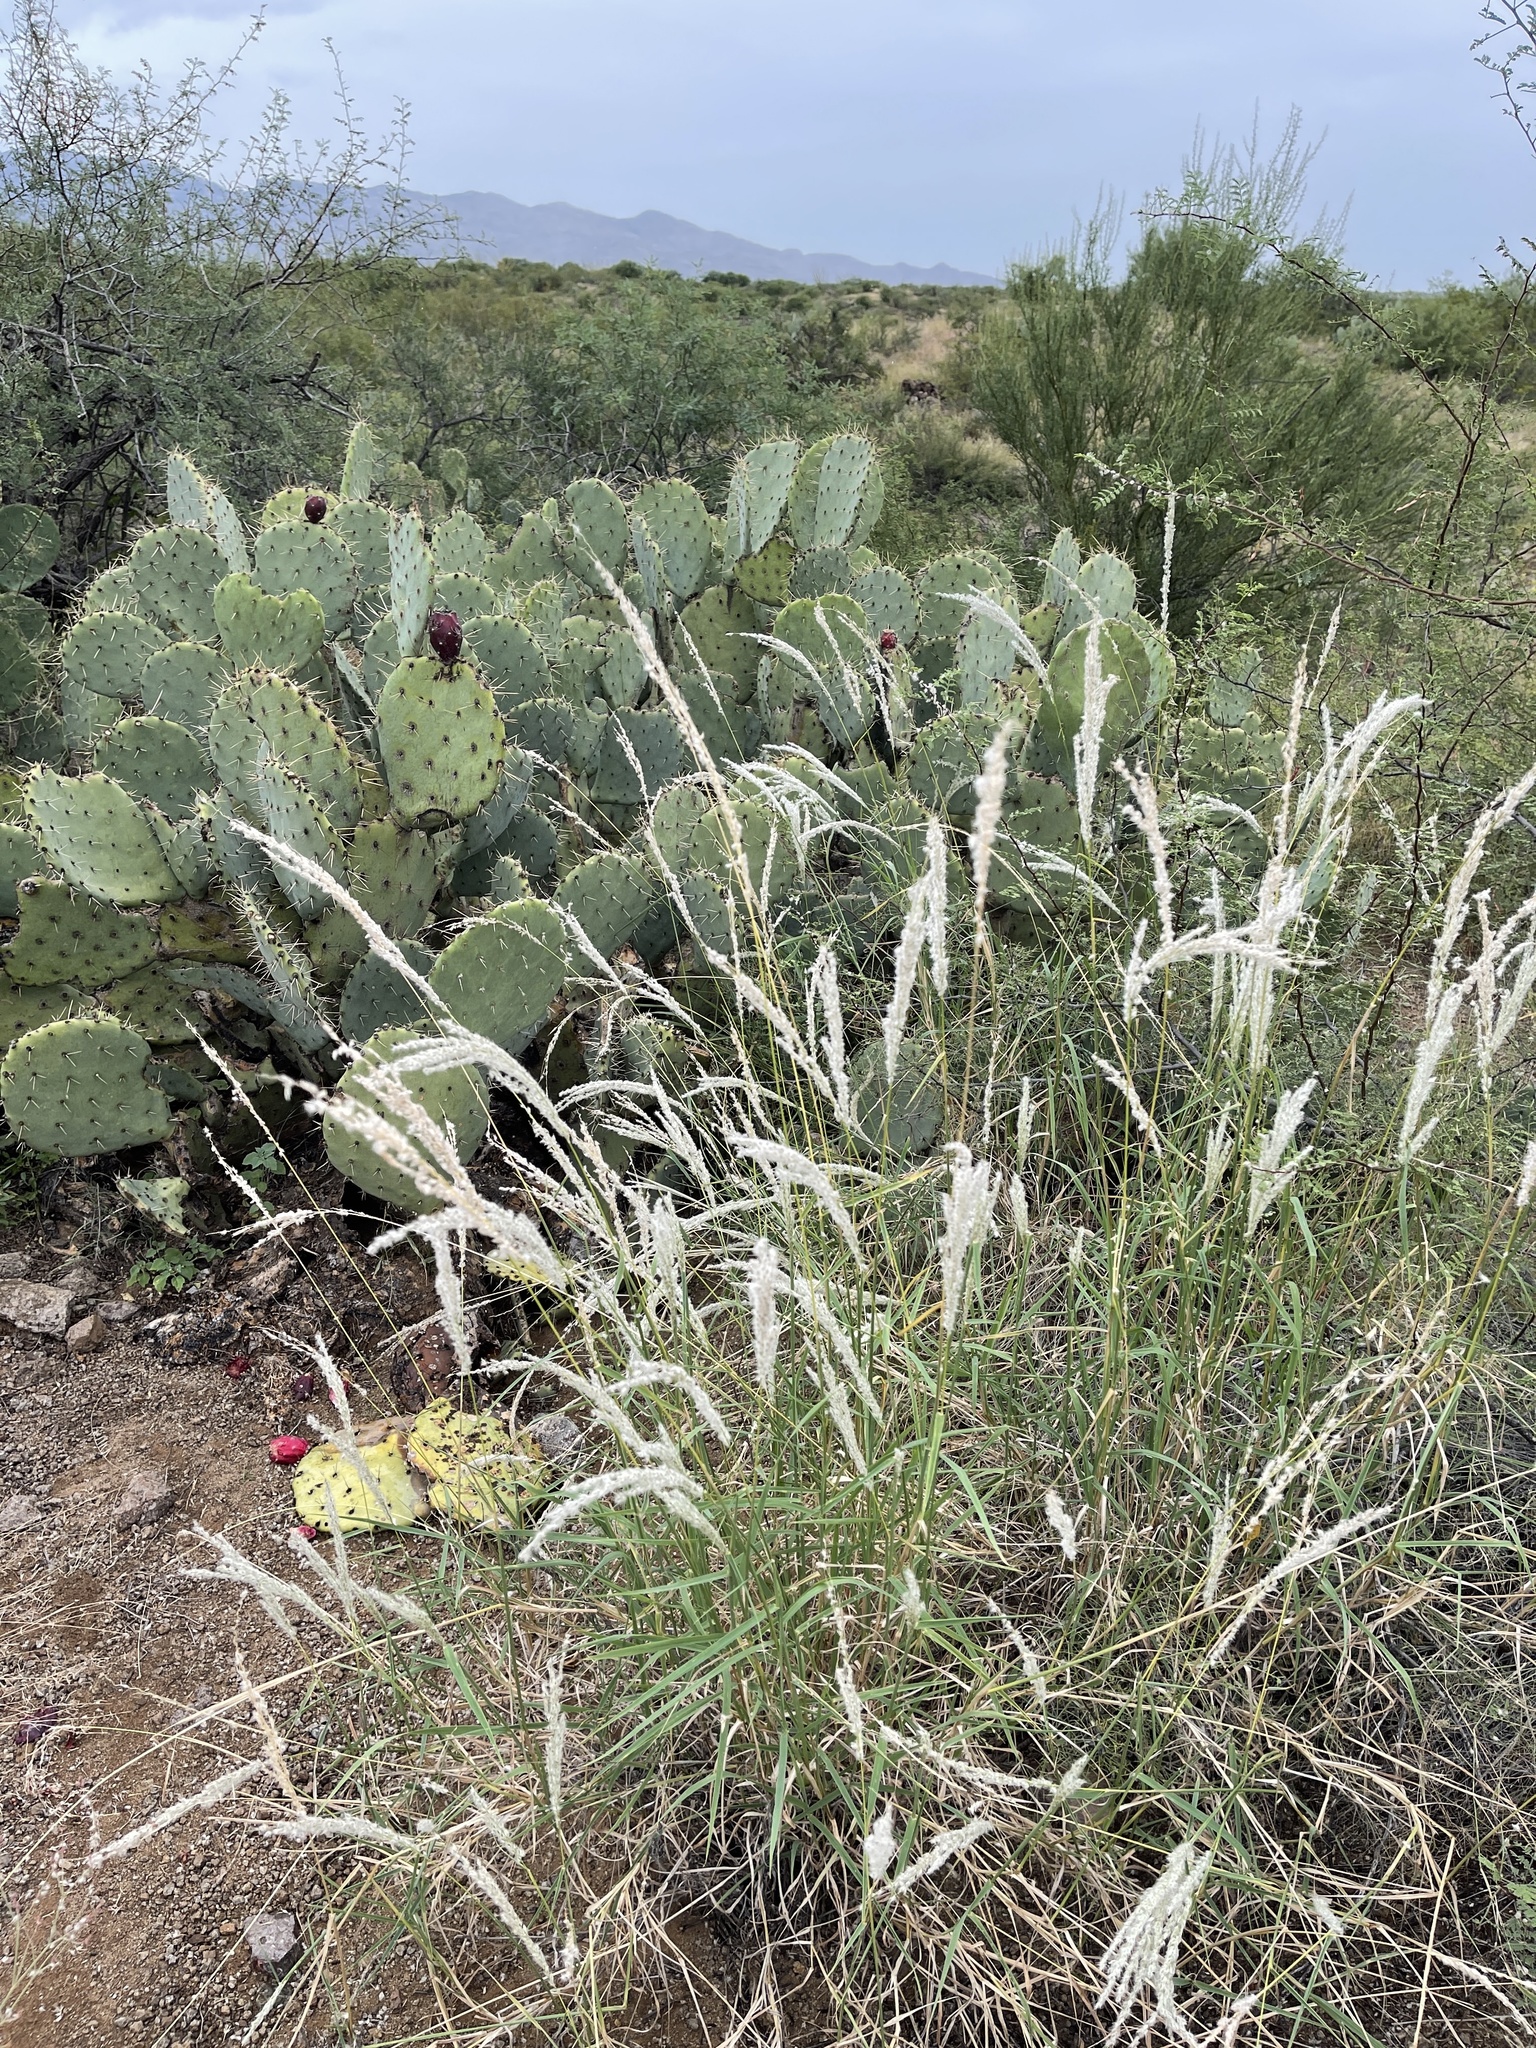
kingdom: Plantae
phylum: Tracheophyta
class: Liliopsida
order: Poales
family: Poaceae
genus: Digitaria
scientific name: Digitaria californica
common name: Arizona cottontop
